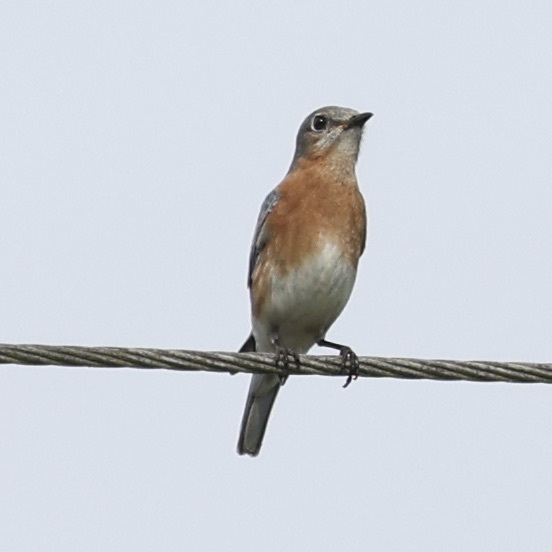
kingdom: Animalia
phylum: Chordata
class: Aves
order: Passeriformes
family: Turdidae
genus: Sialia
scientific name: Sialia sialis
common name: Eastern bluebird
